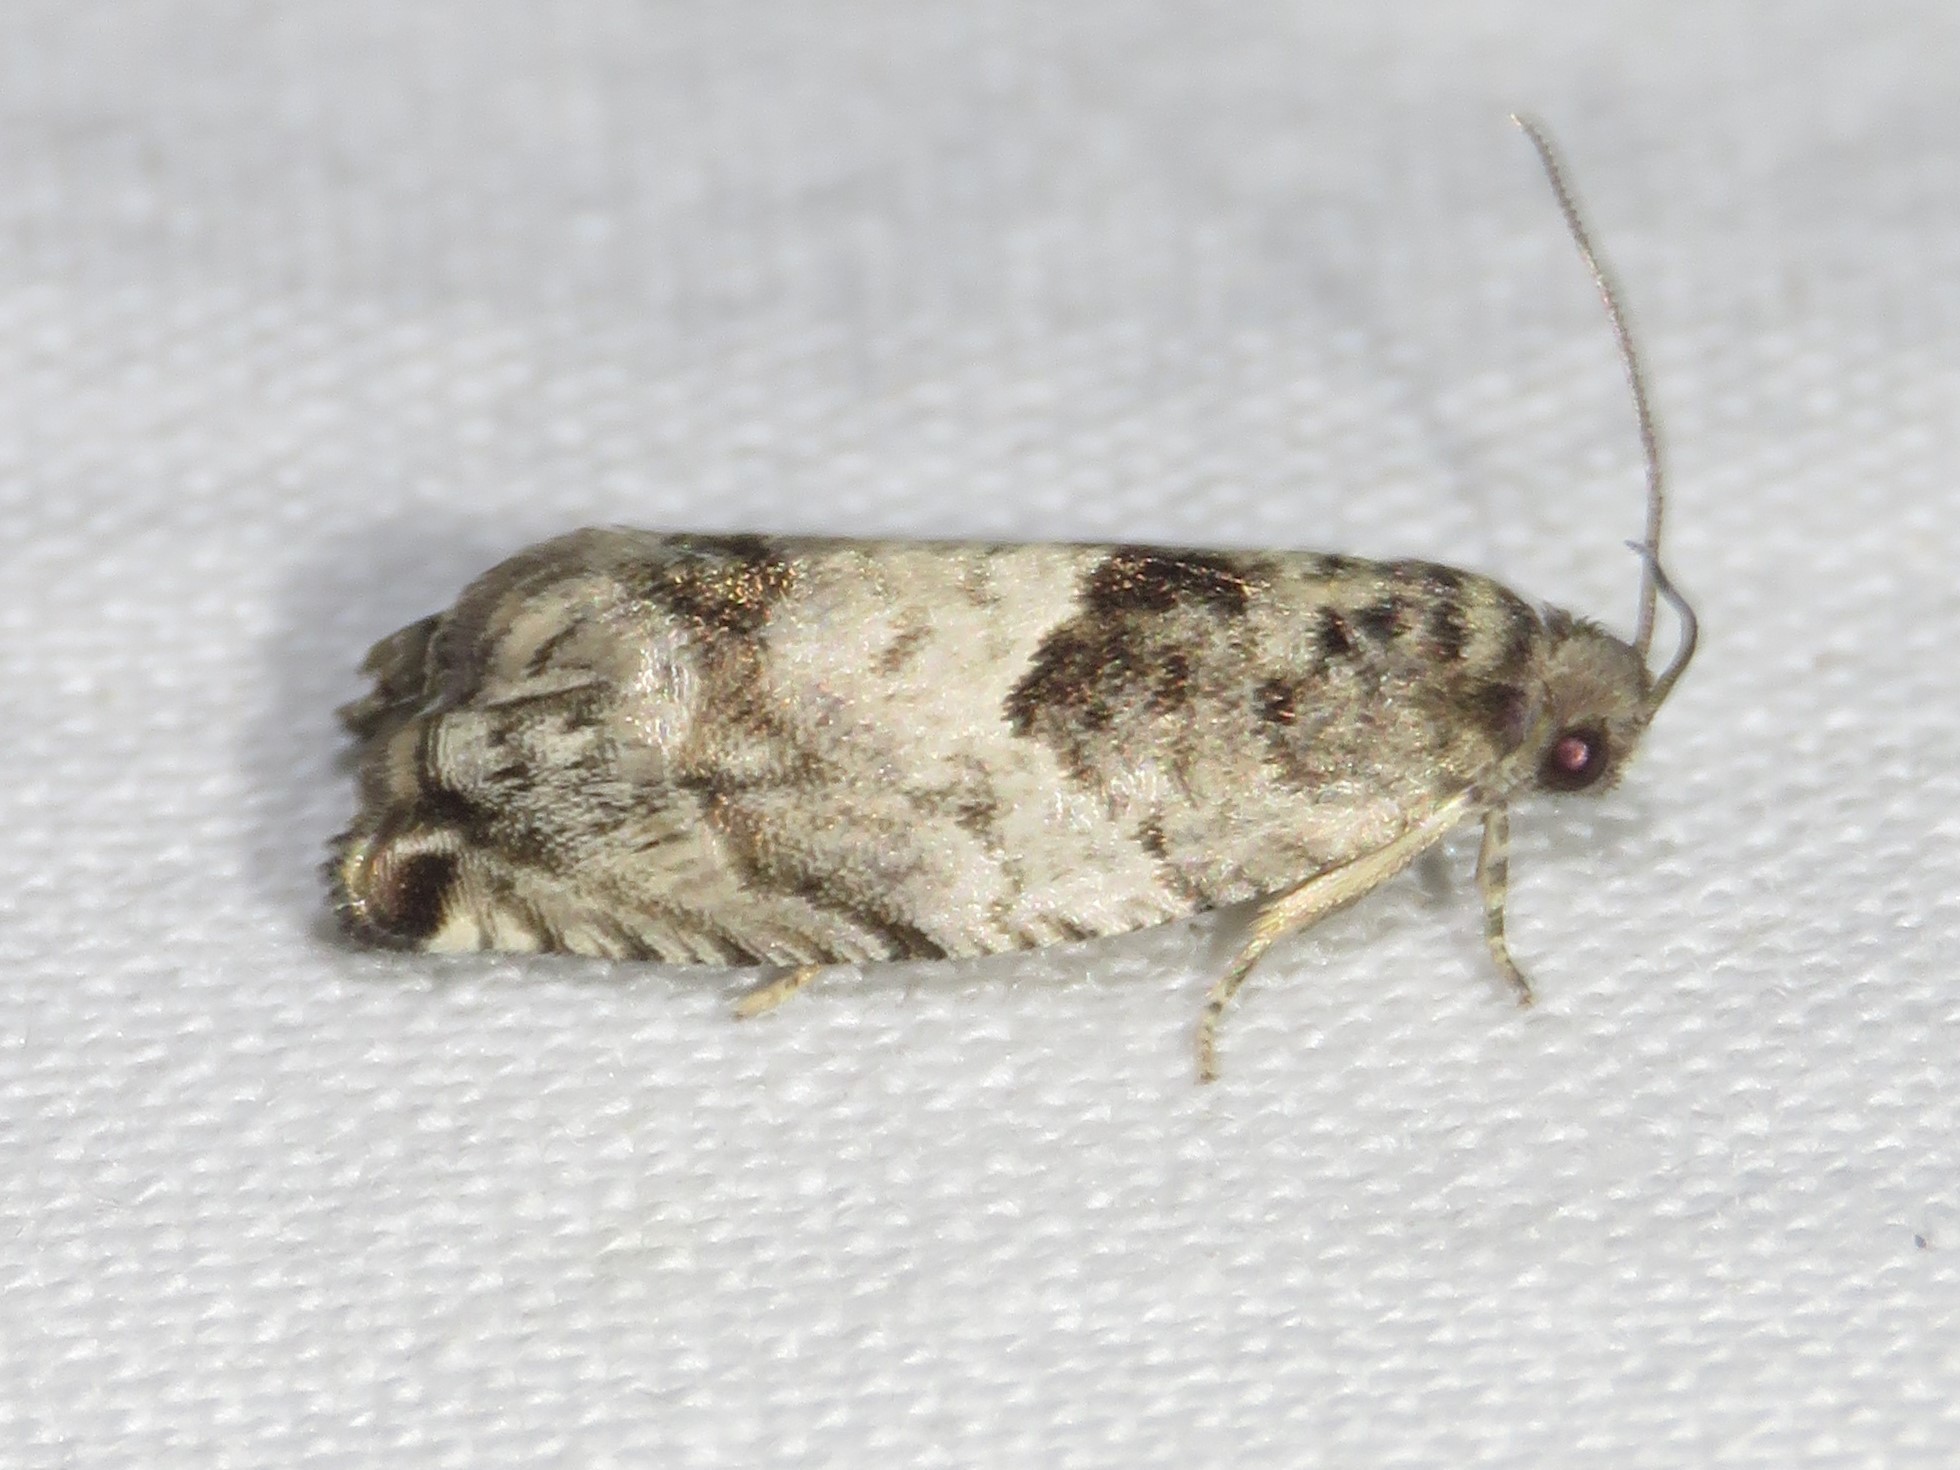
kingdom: Animalia
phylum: Arthropoda
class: Insecta
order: Lepidoptera
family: Tortricidae
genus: Gypsonoma
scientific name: Gypsonoma haimbachiana
